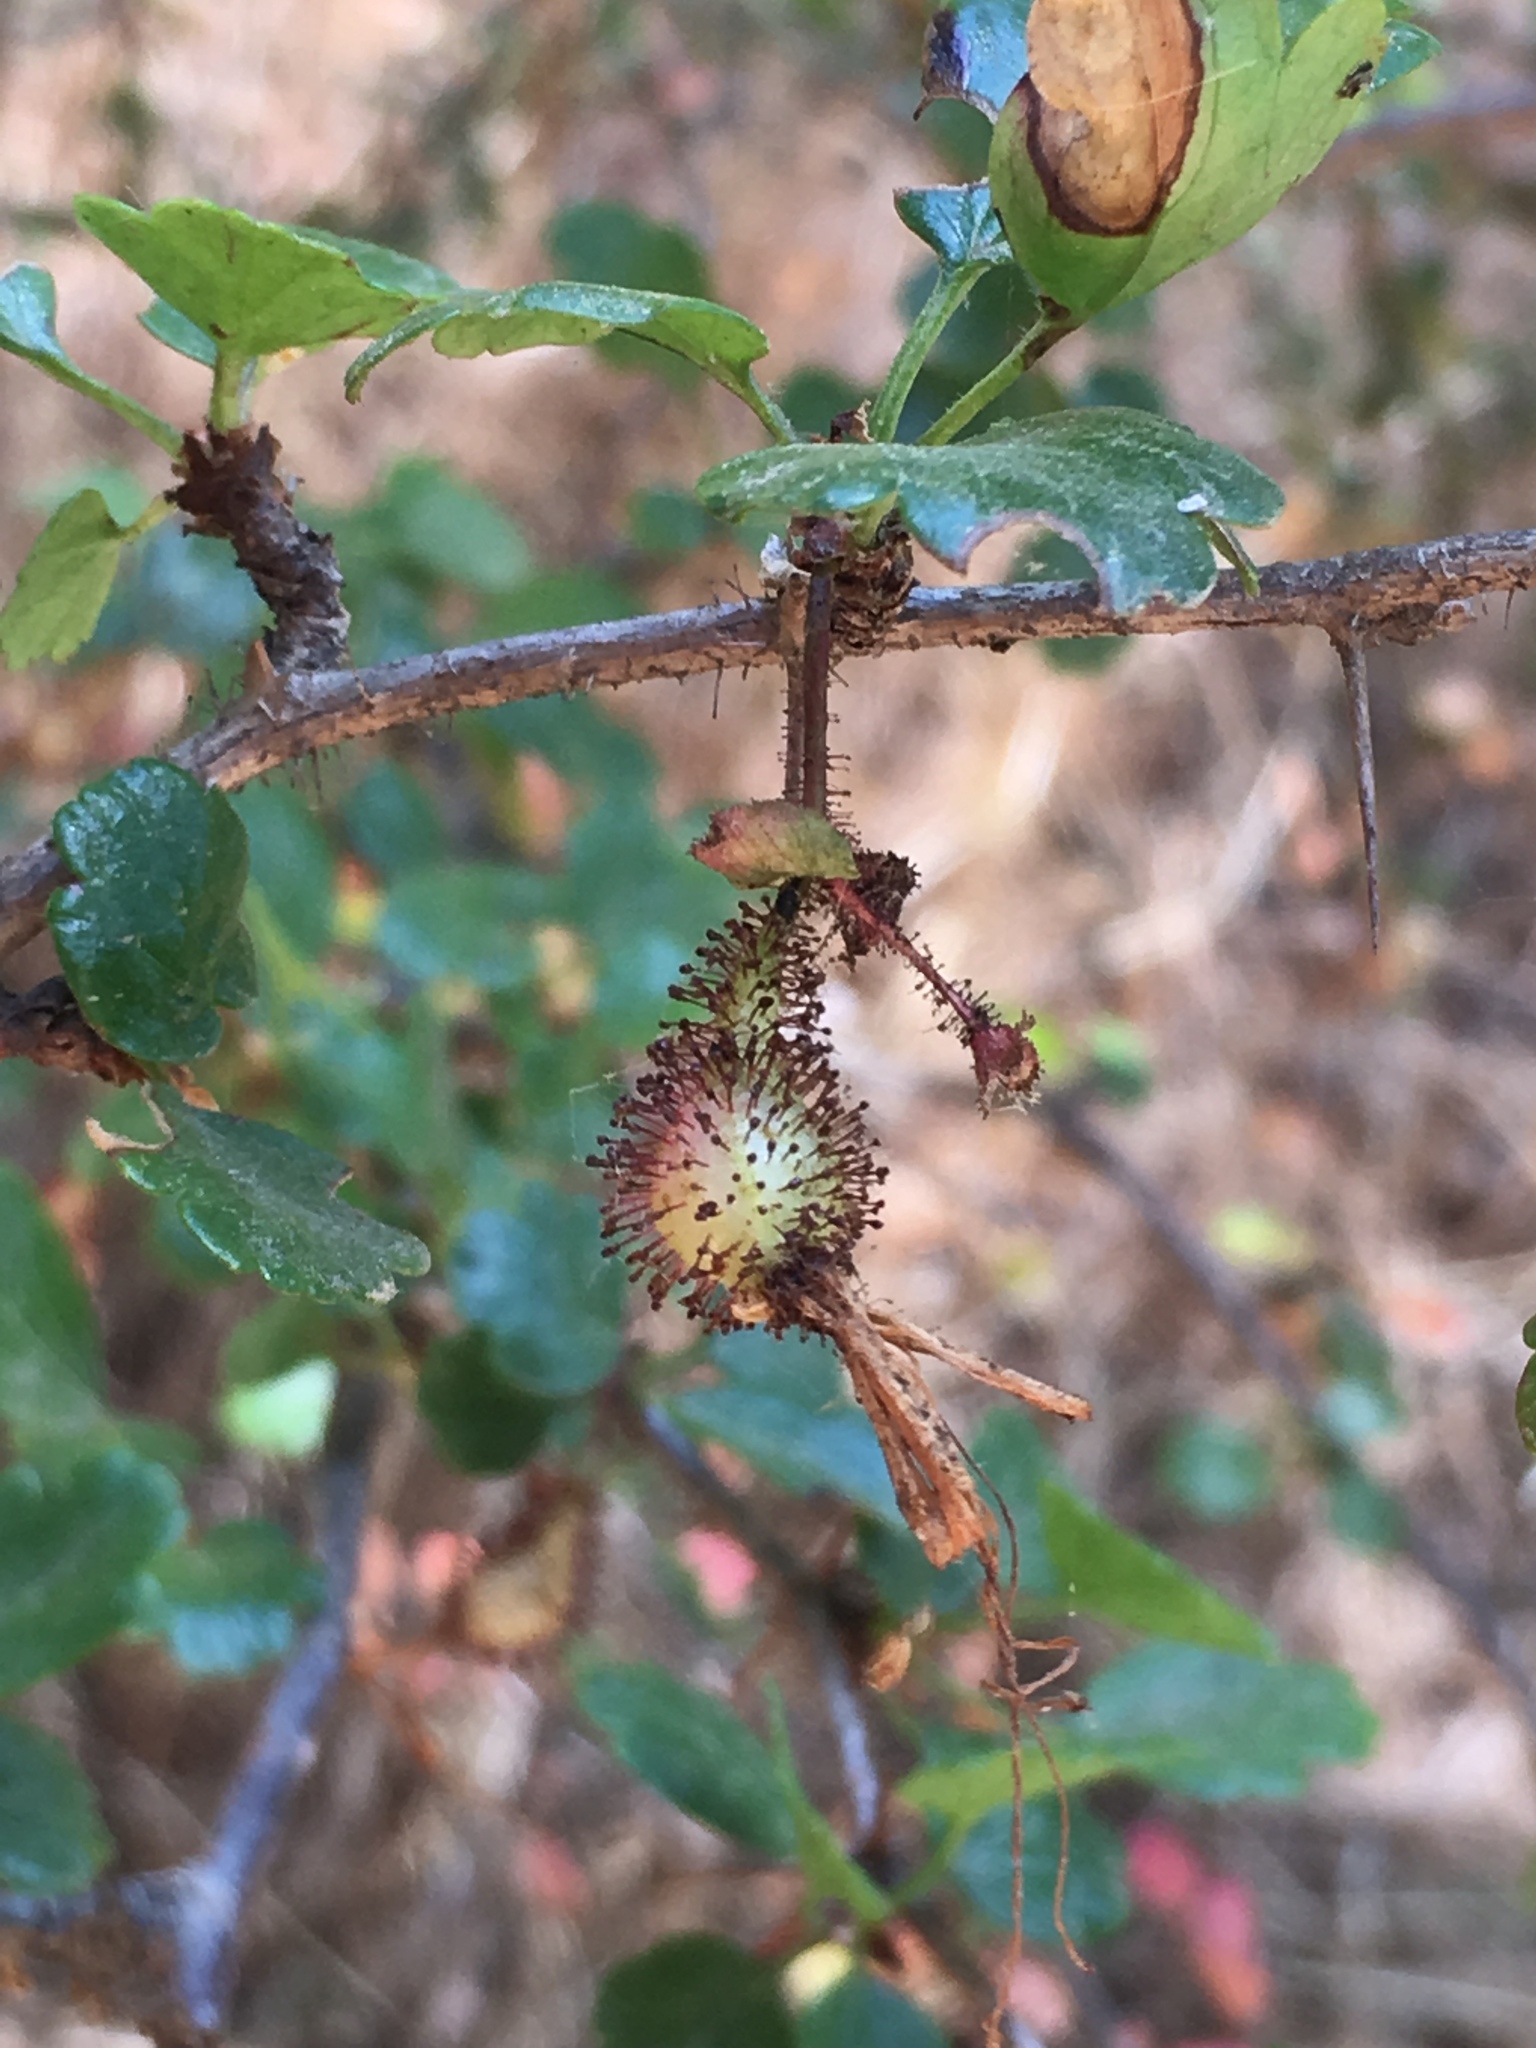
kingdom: Plantae
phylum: Tracheophyta
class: Magnoliopsida
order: Saxifragales
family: Grossulariaceae
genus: Ribes
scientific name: Ribes speciosum
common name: Fuchsia-flower gooseberry
